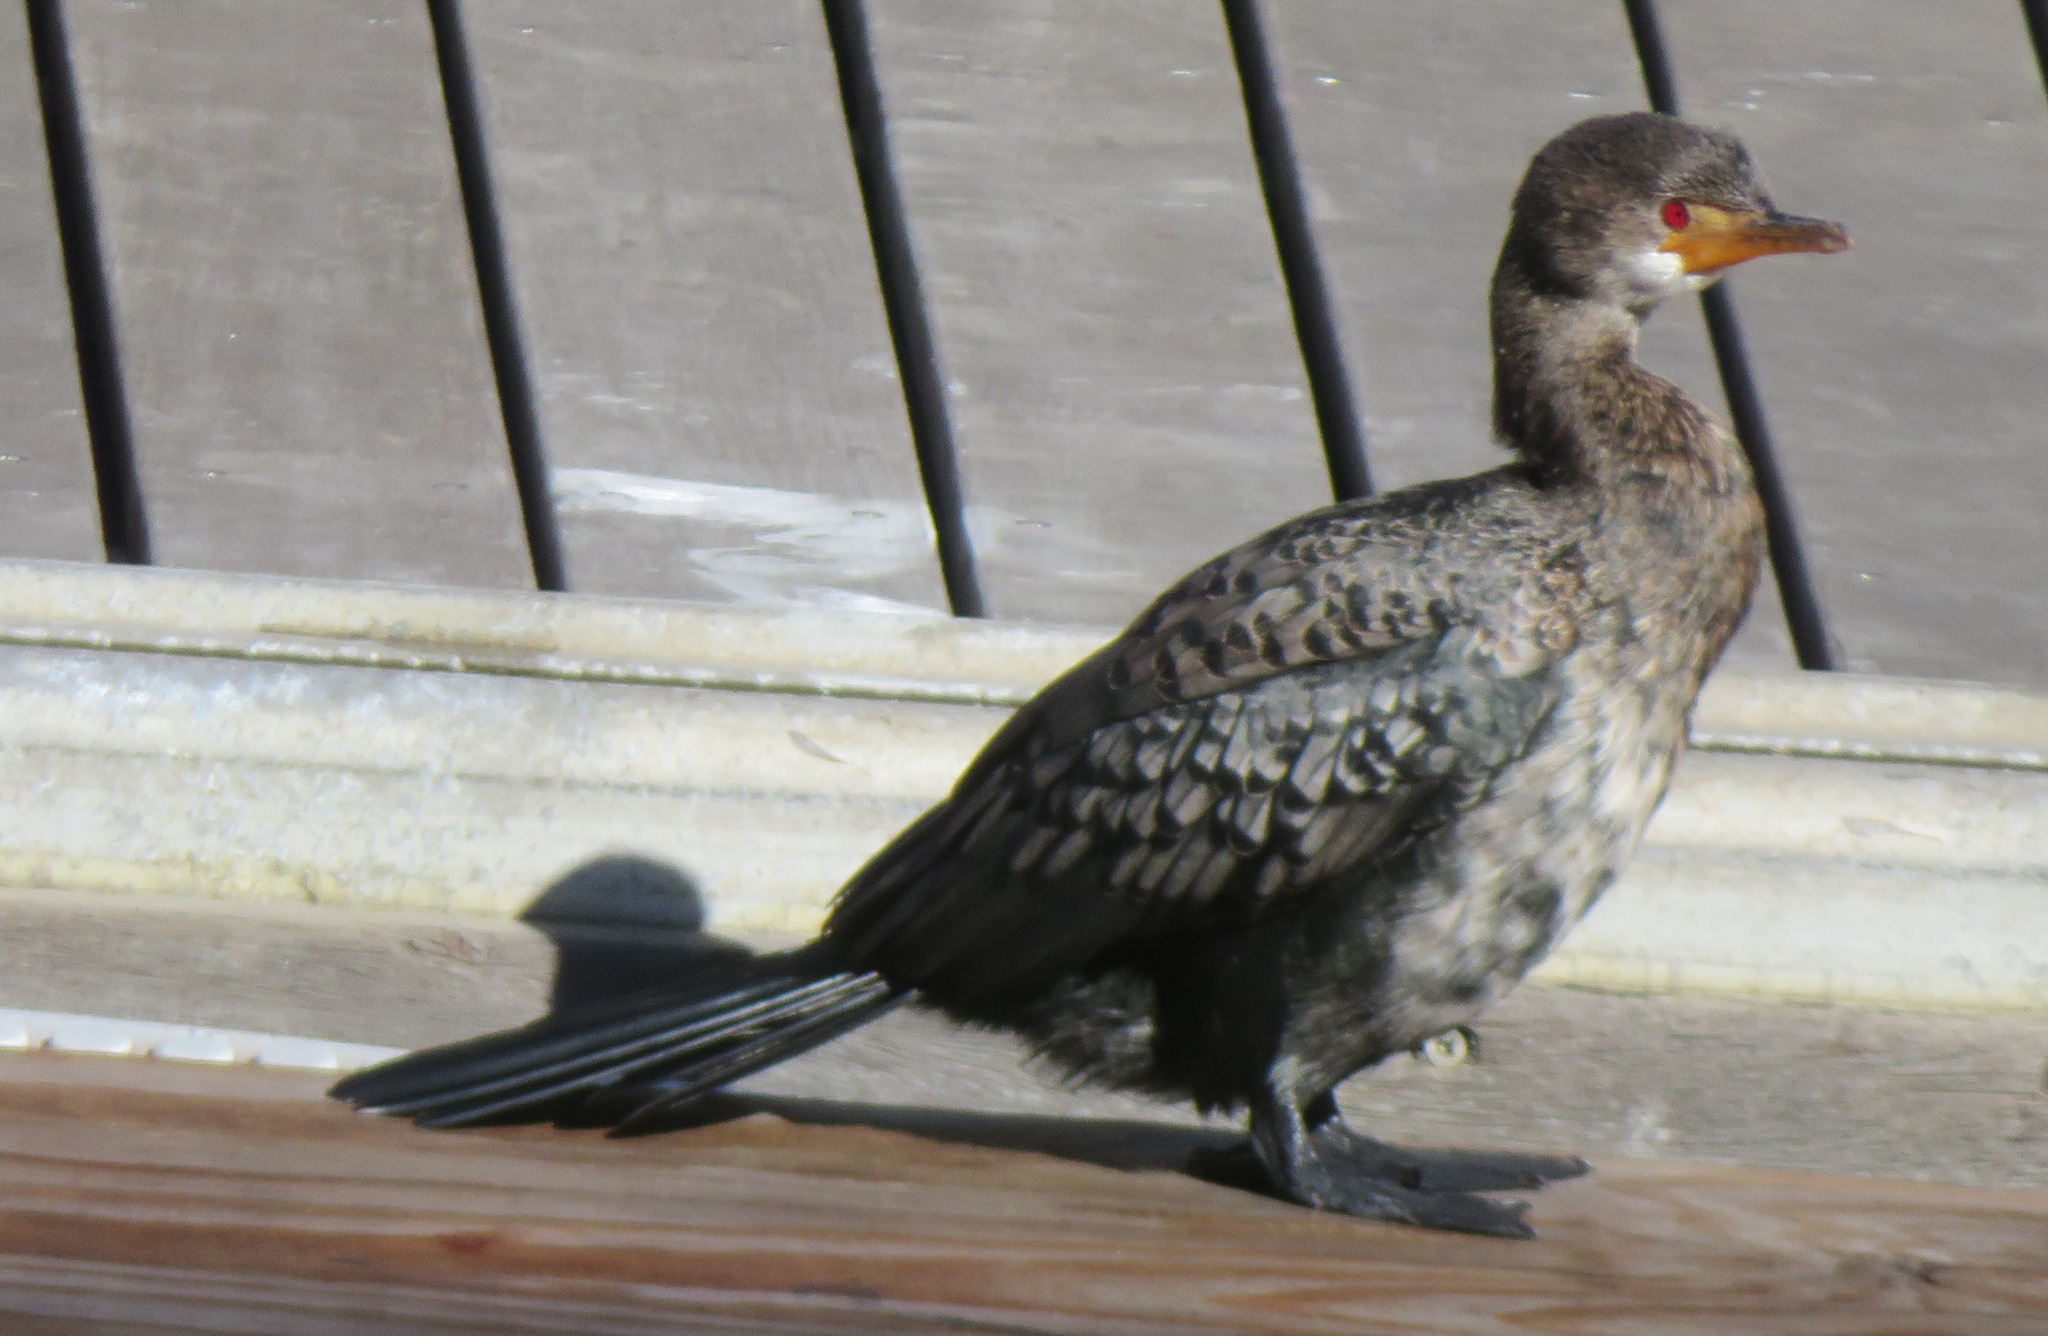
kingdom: Animalia
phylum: Chordata
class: Aves
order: Suliformes
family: Phalacrocoracidae
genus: Microcarbo
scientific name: Microcarbo coronatus
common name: Crowned cormorant
